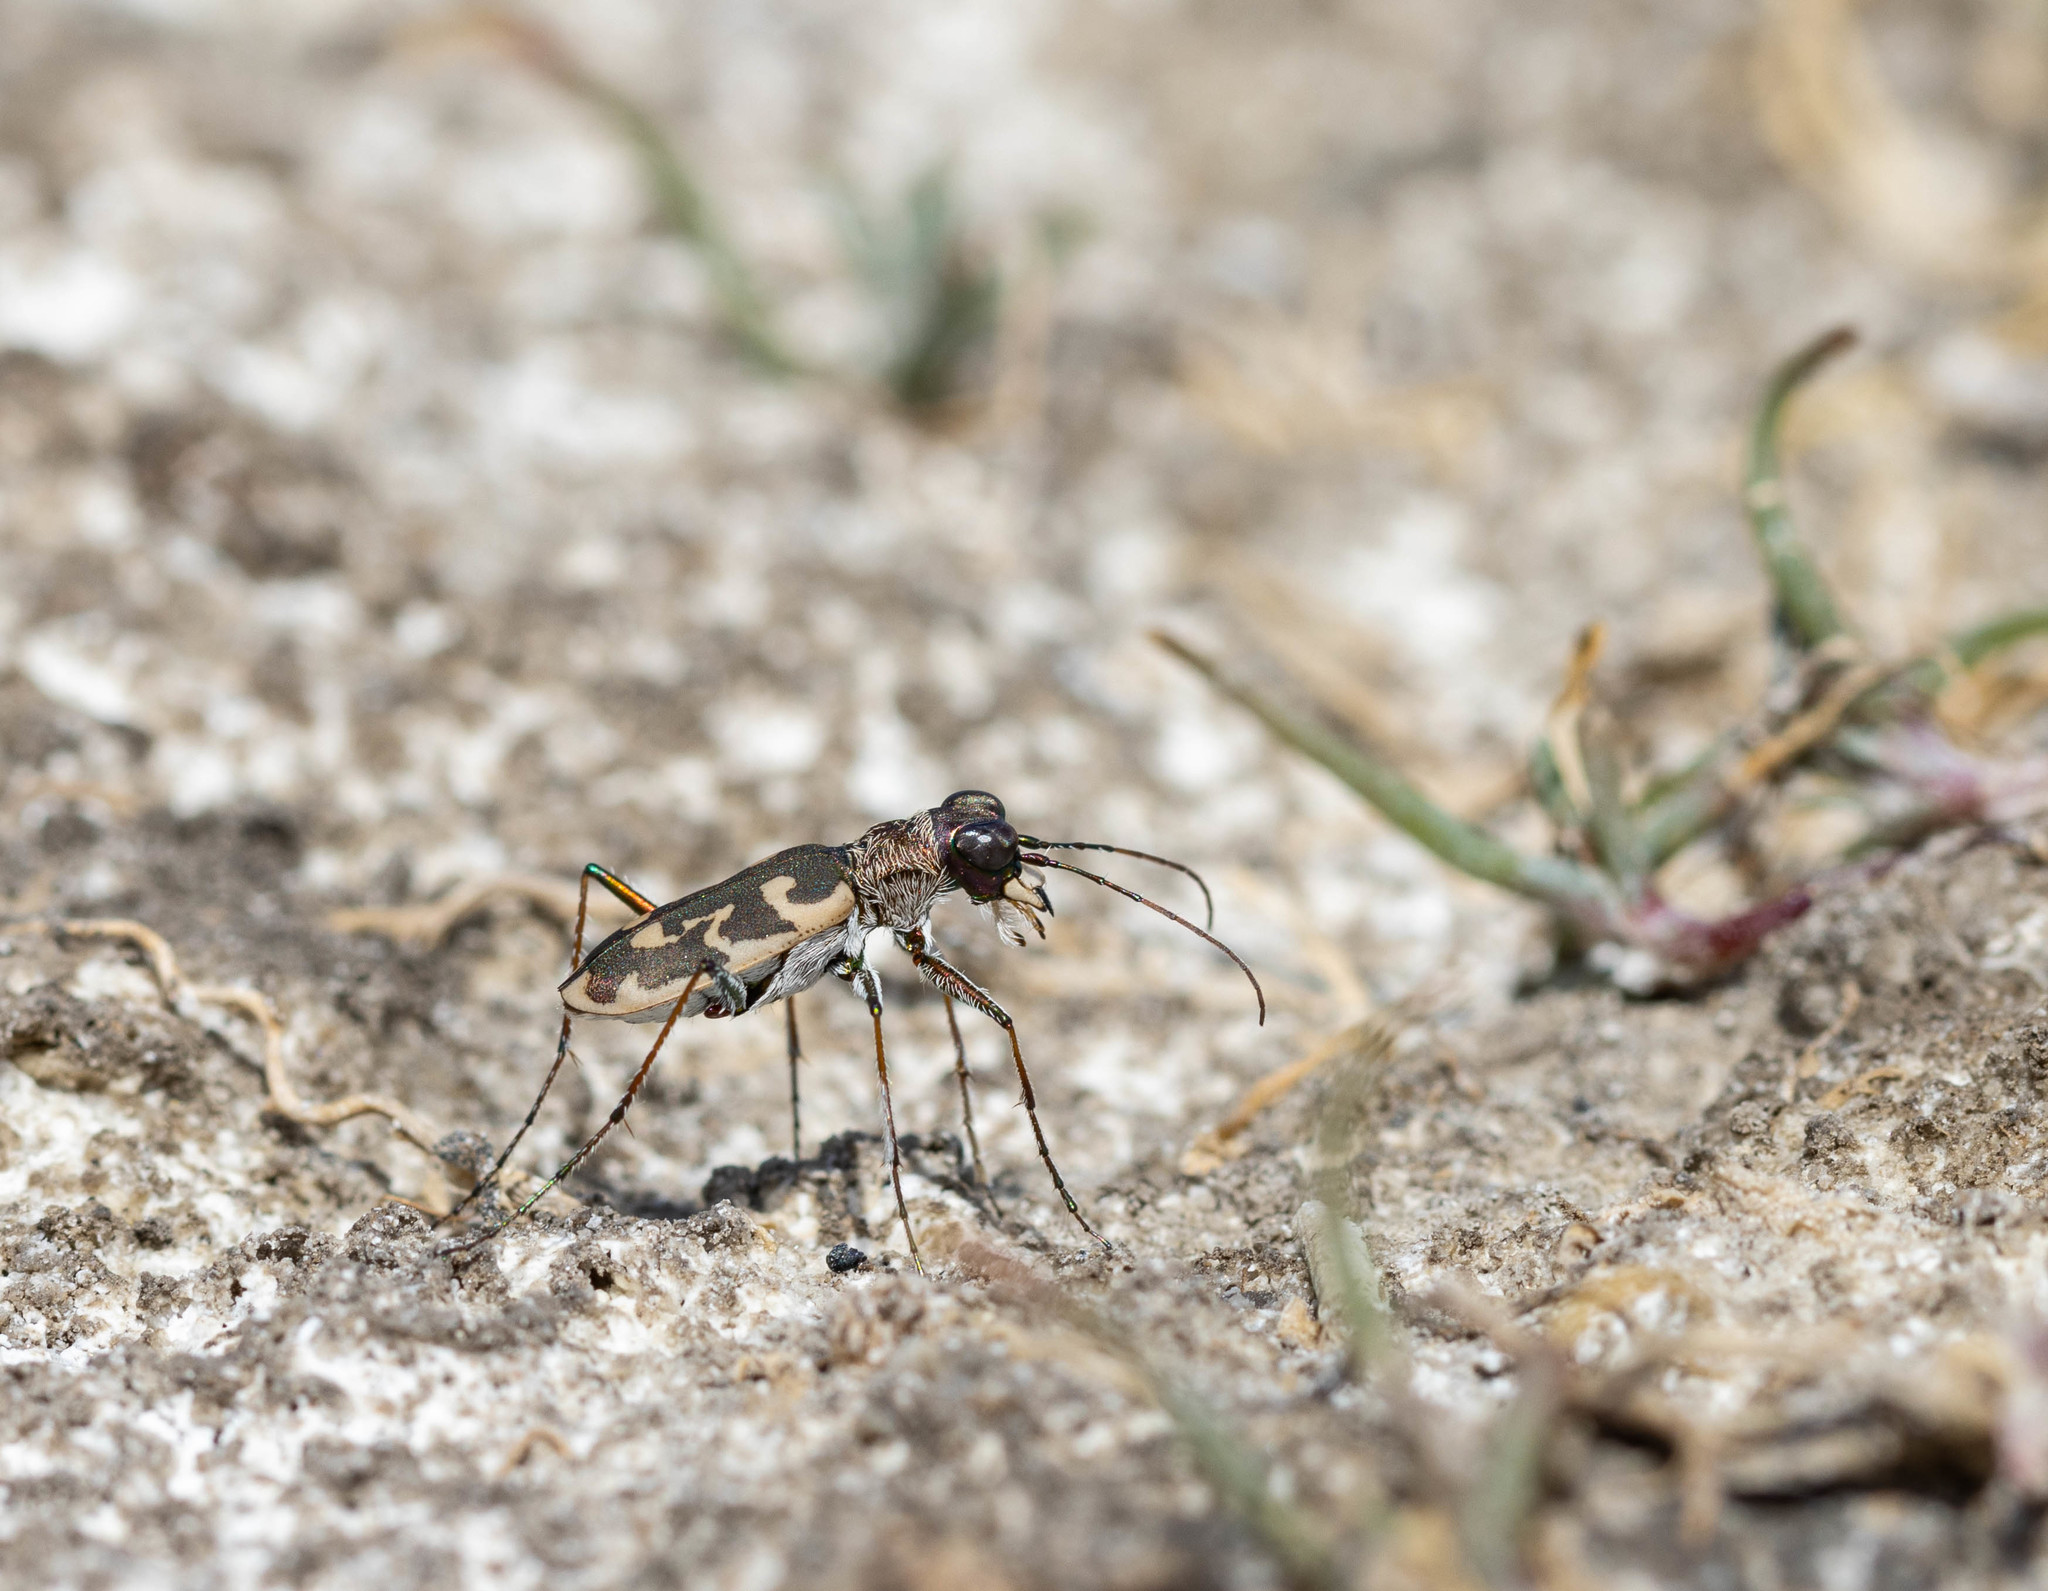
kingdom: Animalia
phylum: Arthropoda
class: Insecta
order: Coleoptera
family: Carabidae
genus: Cephalota
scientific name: Cephalota deserticola
